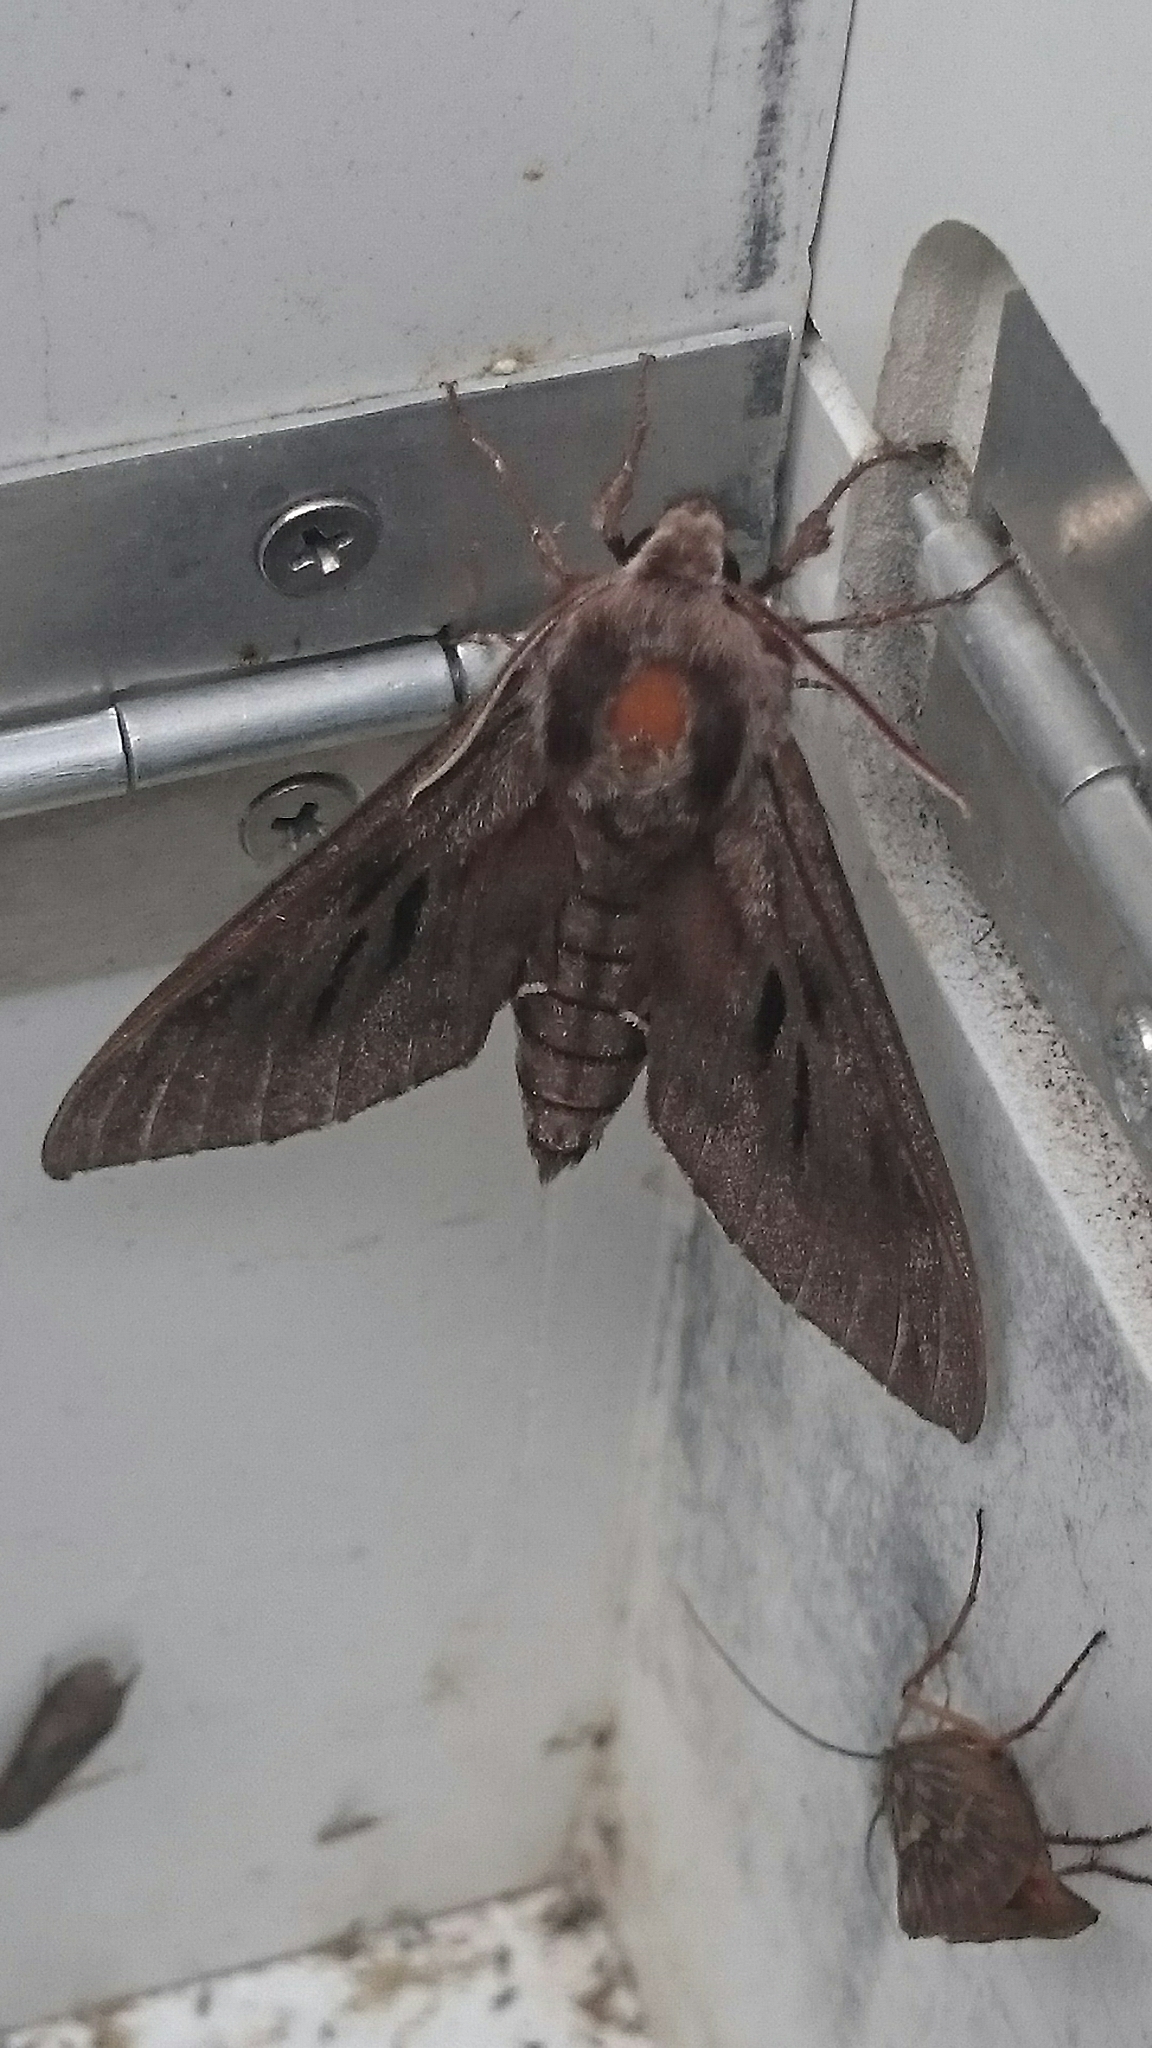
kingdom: Animalia
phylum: Arthropoda
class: Insecta
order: Lepidoptera
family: Sphingidae
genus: Sphinx
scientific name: Sphinx pinastri
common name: Pine hawk-moth
